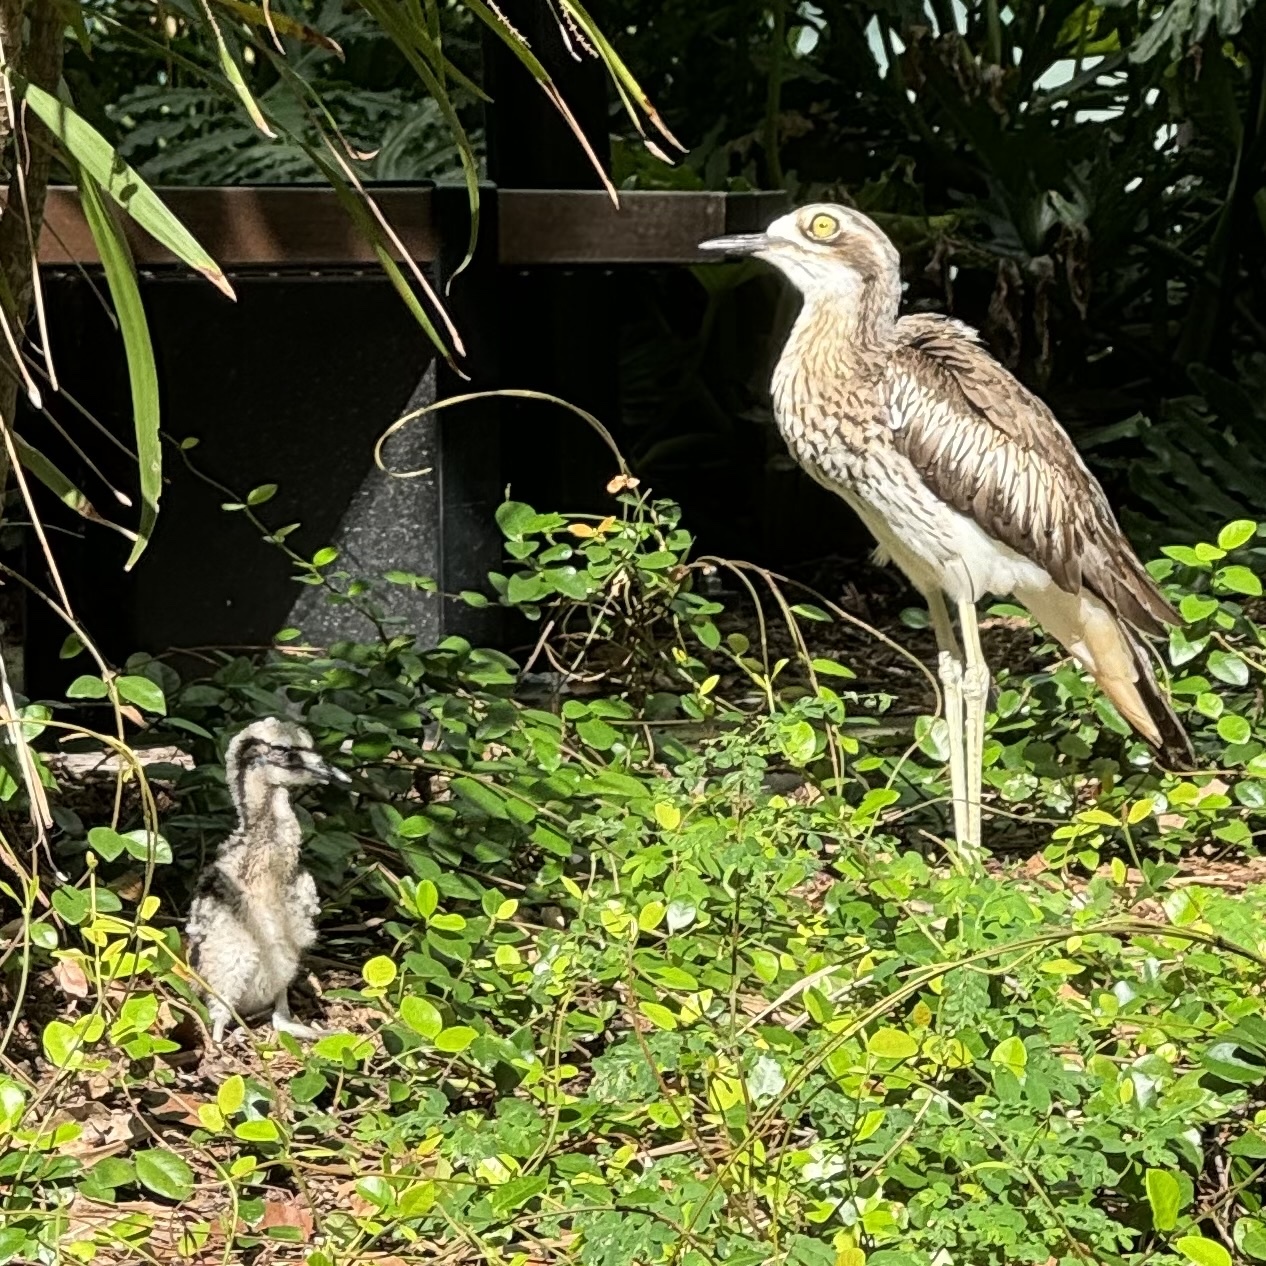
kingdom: Animalia
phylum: Chordata
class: Aves
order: Charadriiformes
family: Burhinidae
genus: Burhinus
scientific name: Burhinus grallarius
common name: Bush stone-curlew
